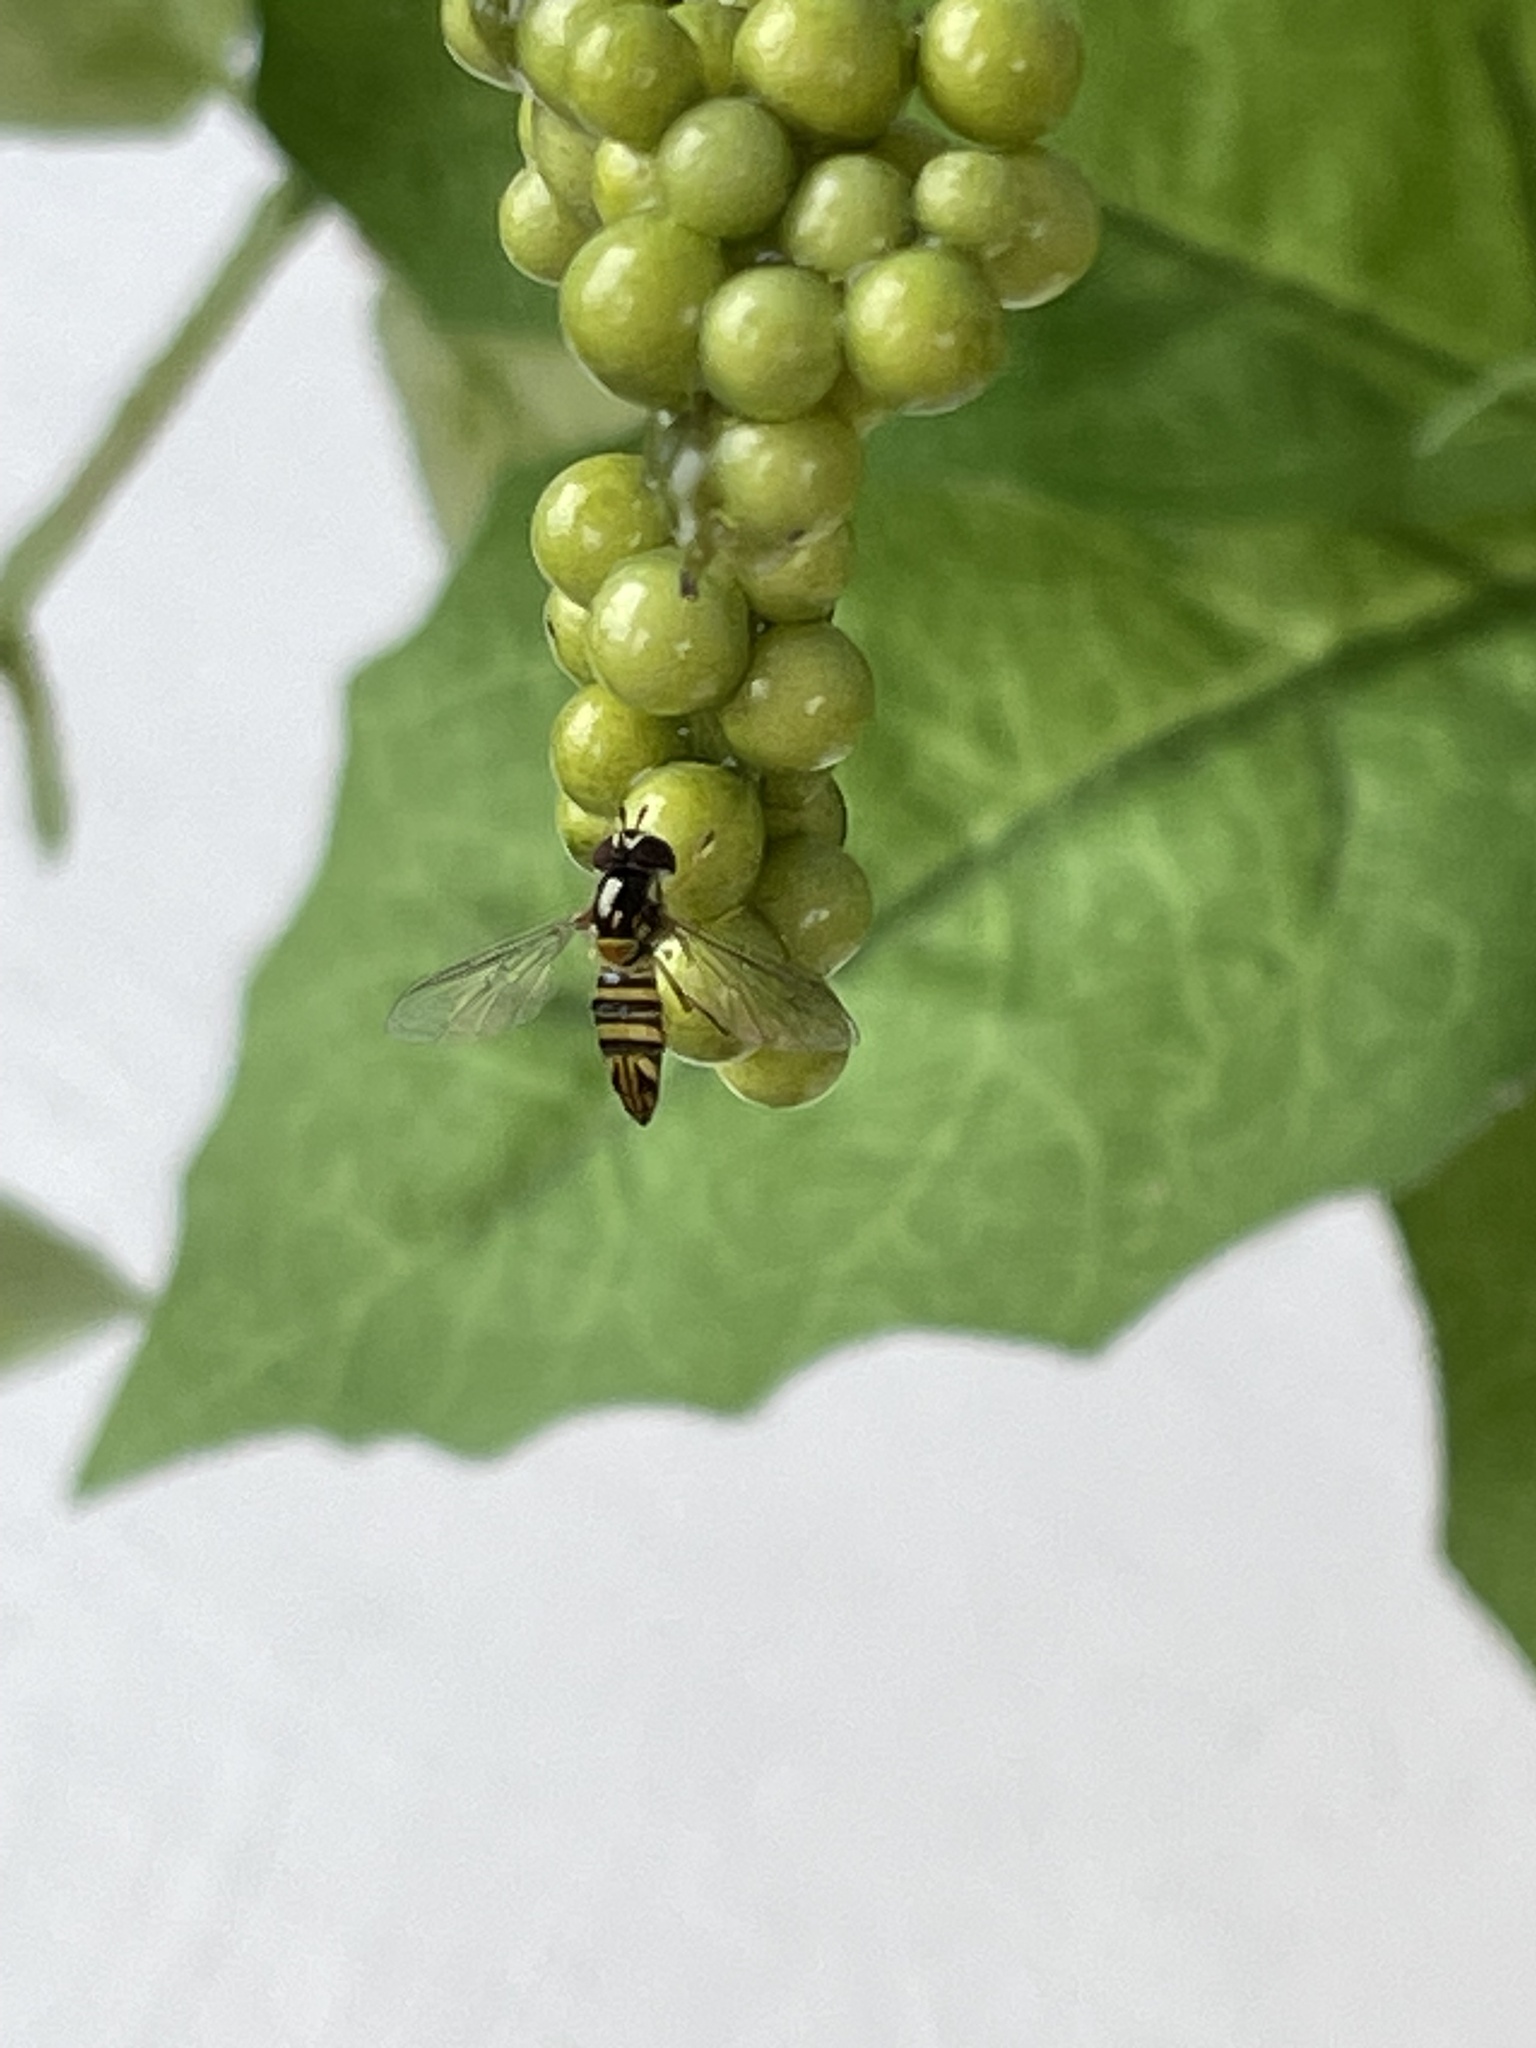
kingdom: Animalia
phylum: Arthropoda
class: Insecta
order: Diptera
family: Syrphidae
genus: Allograpta
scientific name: Allograpta obliqua
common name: Common oblique syrphid
